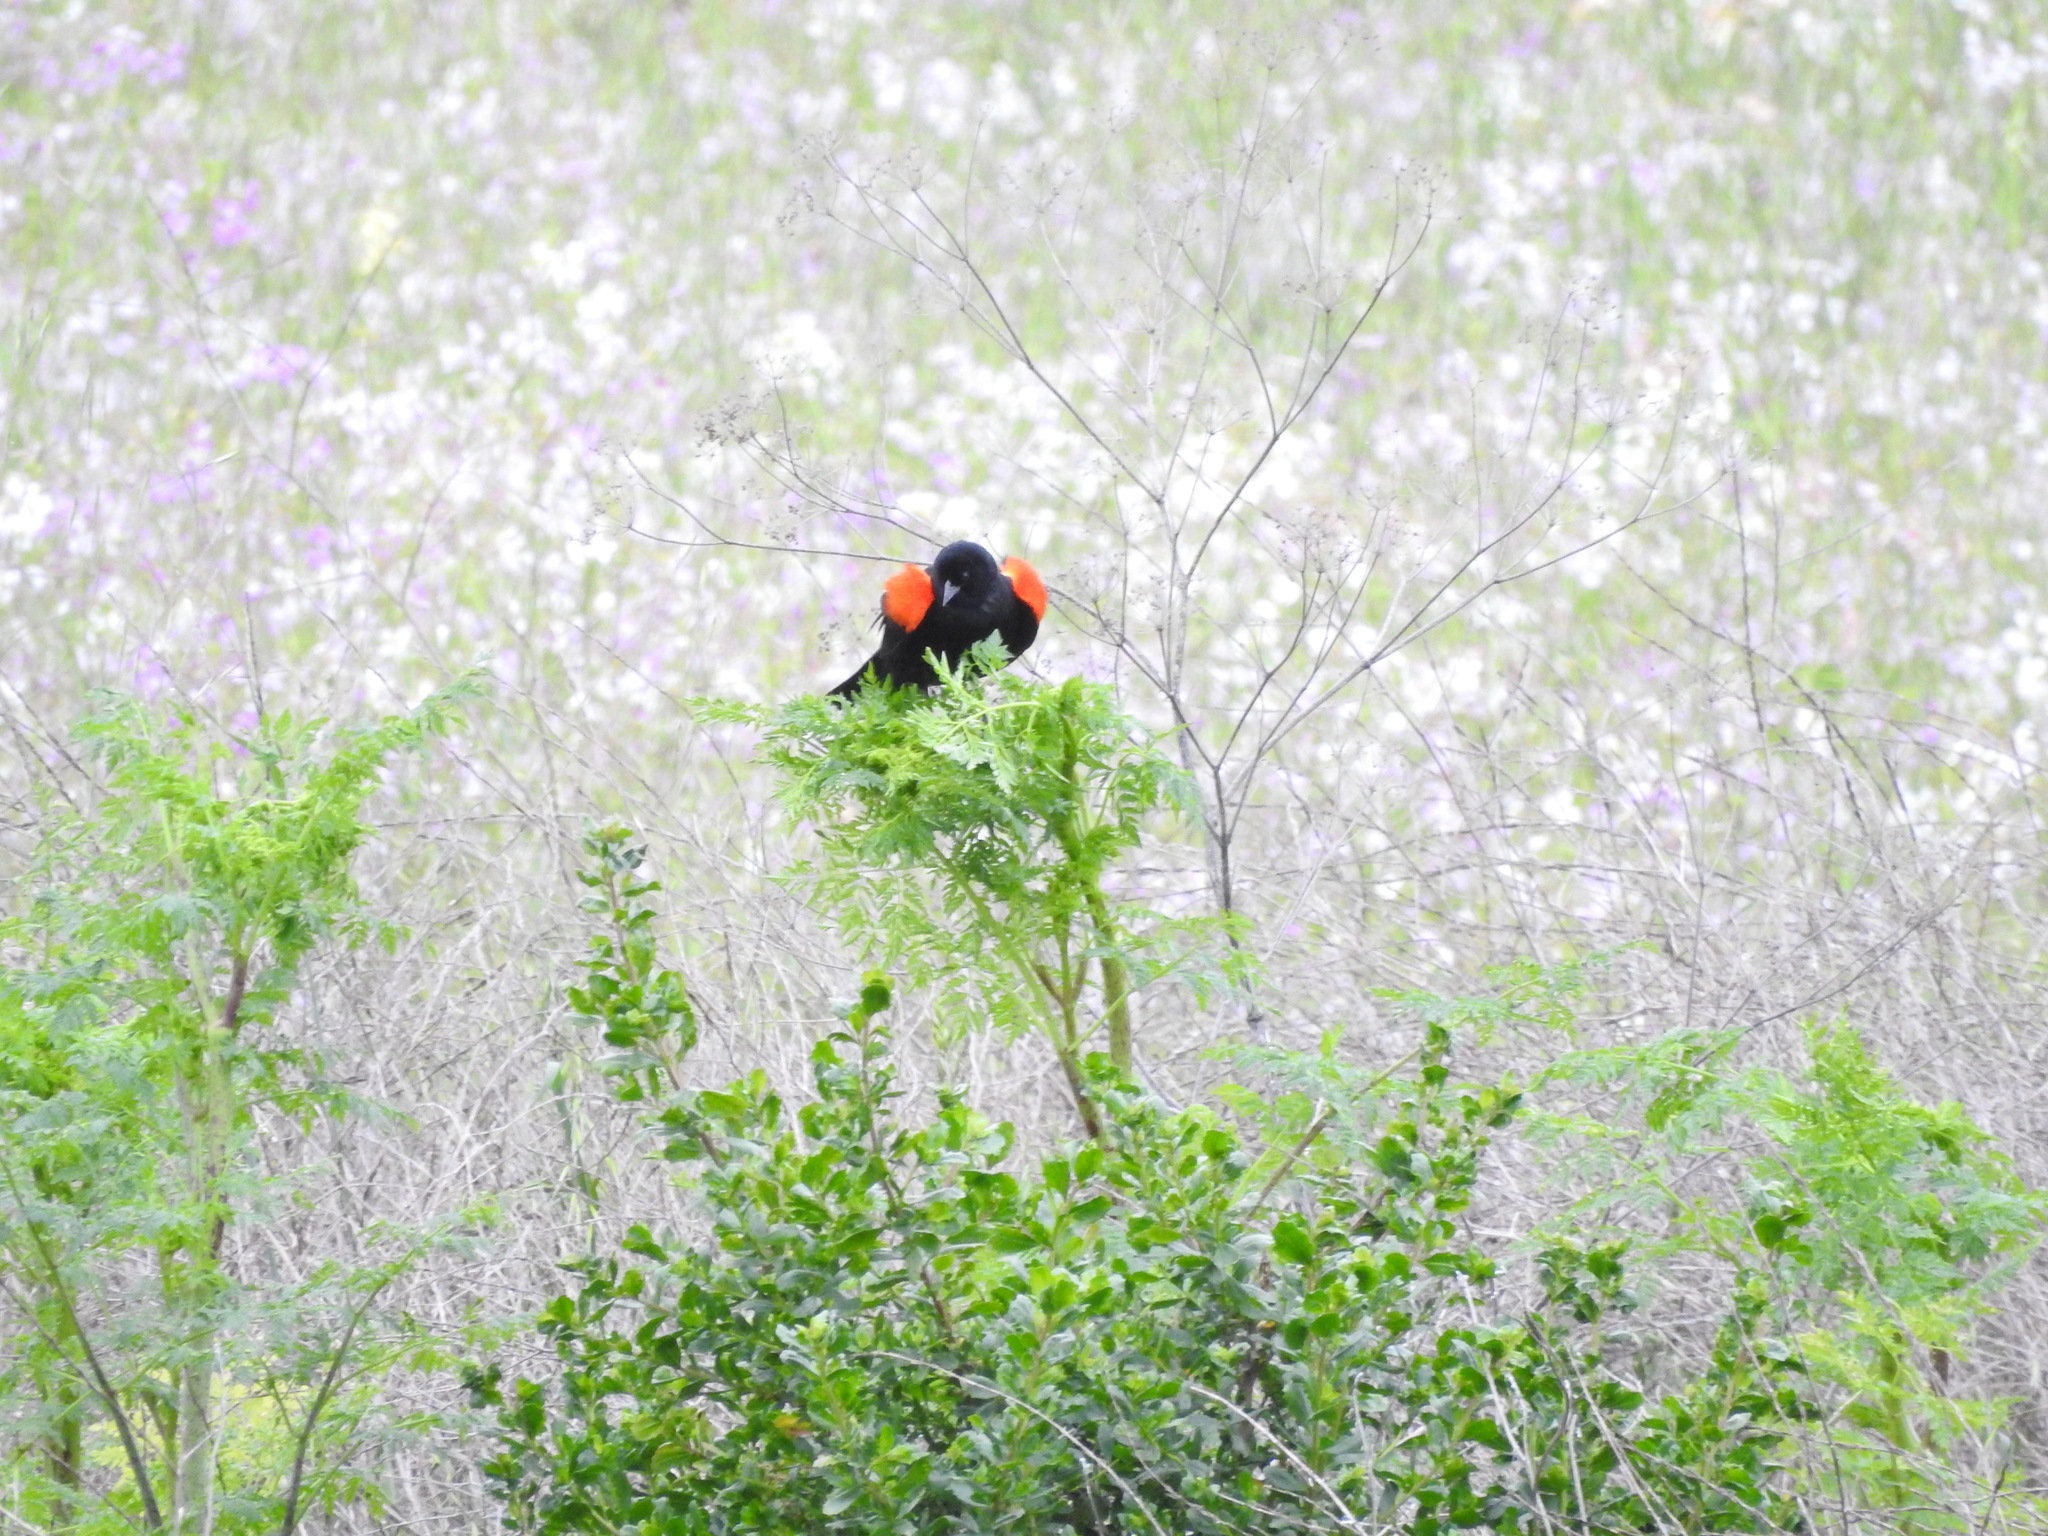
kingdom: Animalia
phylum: Chordata
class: Aves
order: Passeriformes
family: Icteridae
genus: Agelaius
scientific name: Agelaius phoeniceus
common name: Red-winged blackbird
